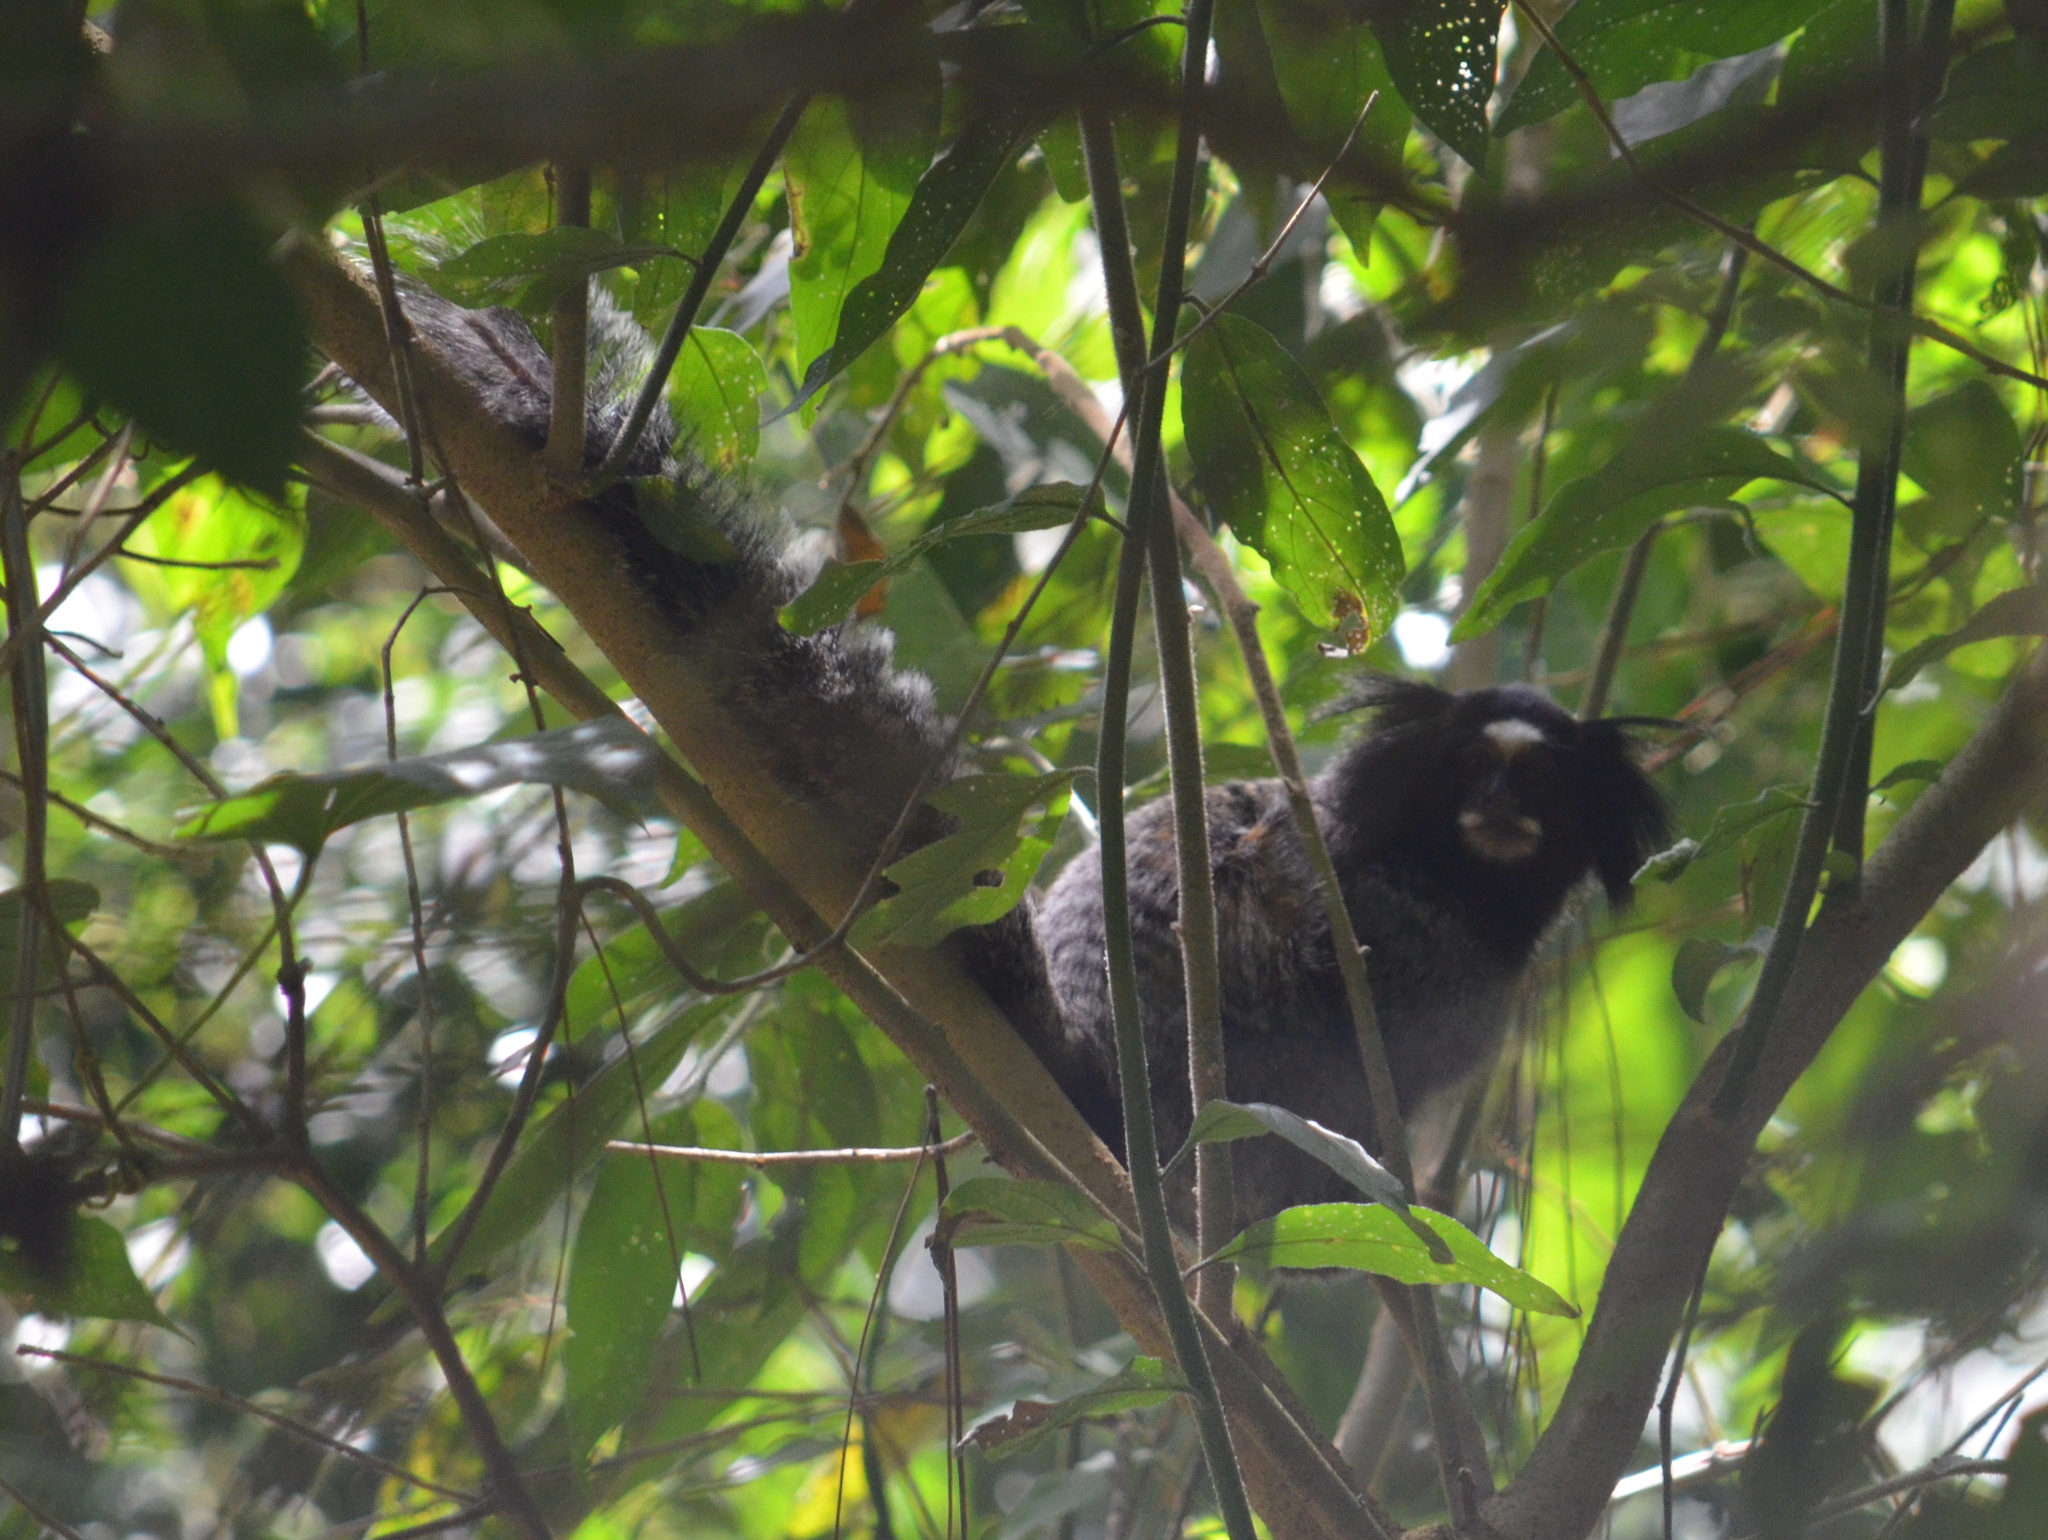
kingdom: Animalia
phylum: Chordata
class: Mammalia
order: Primates
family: Callitrichidae
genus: Callithrix
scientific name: Callithrix penicillata
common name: Black-tufted marmoset
